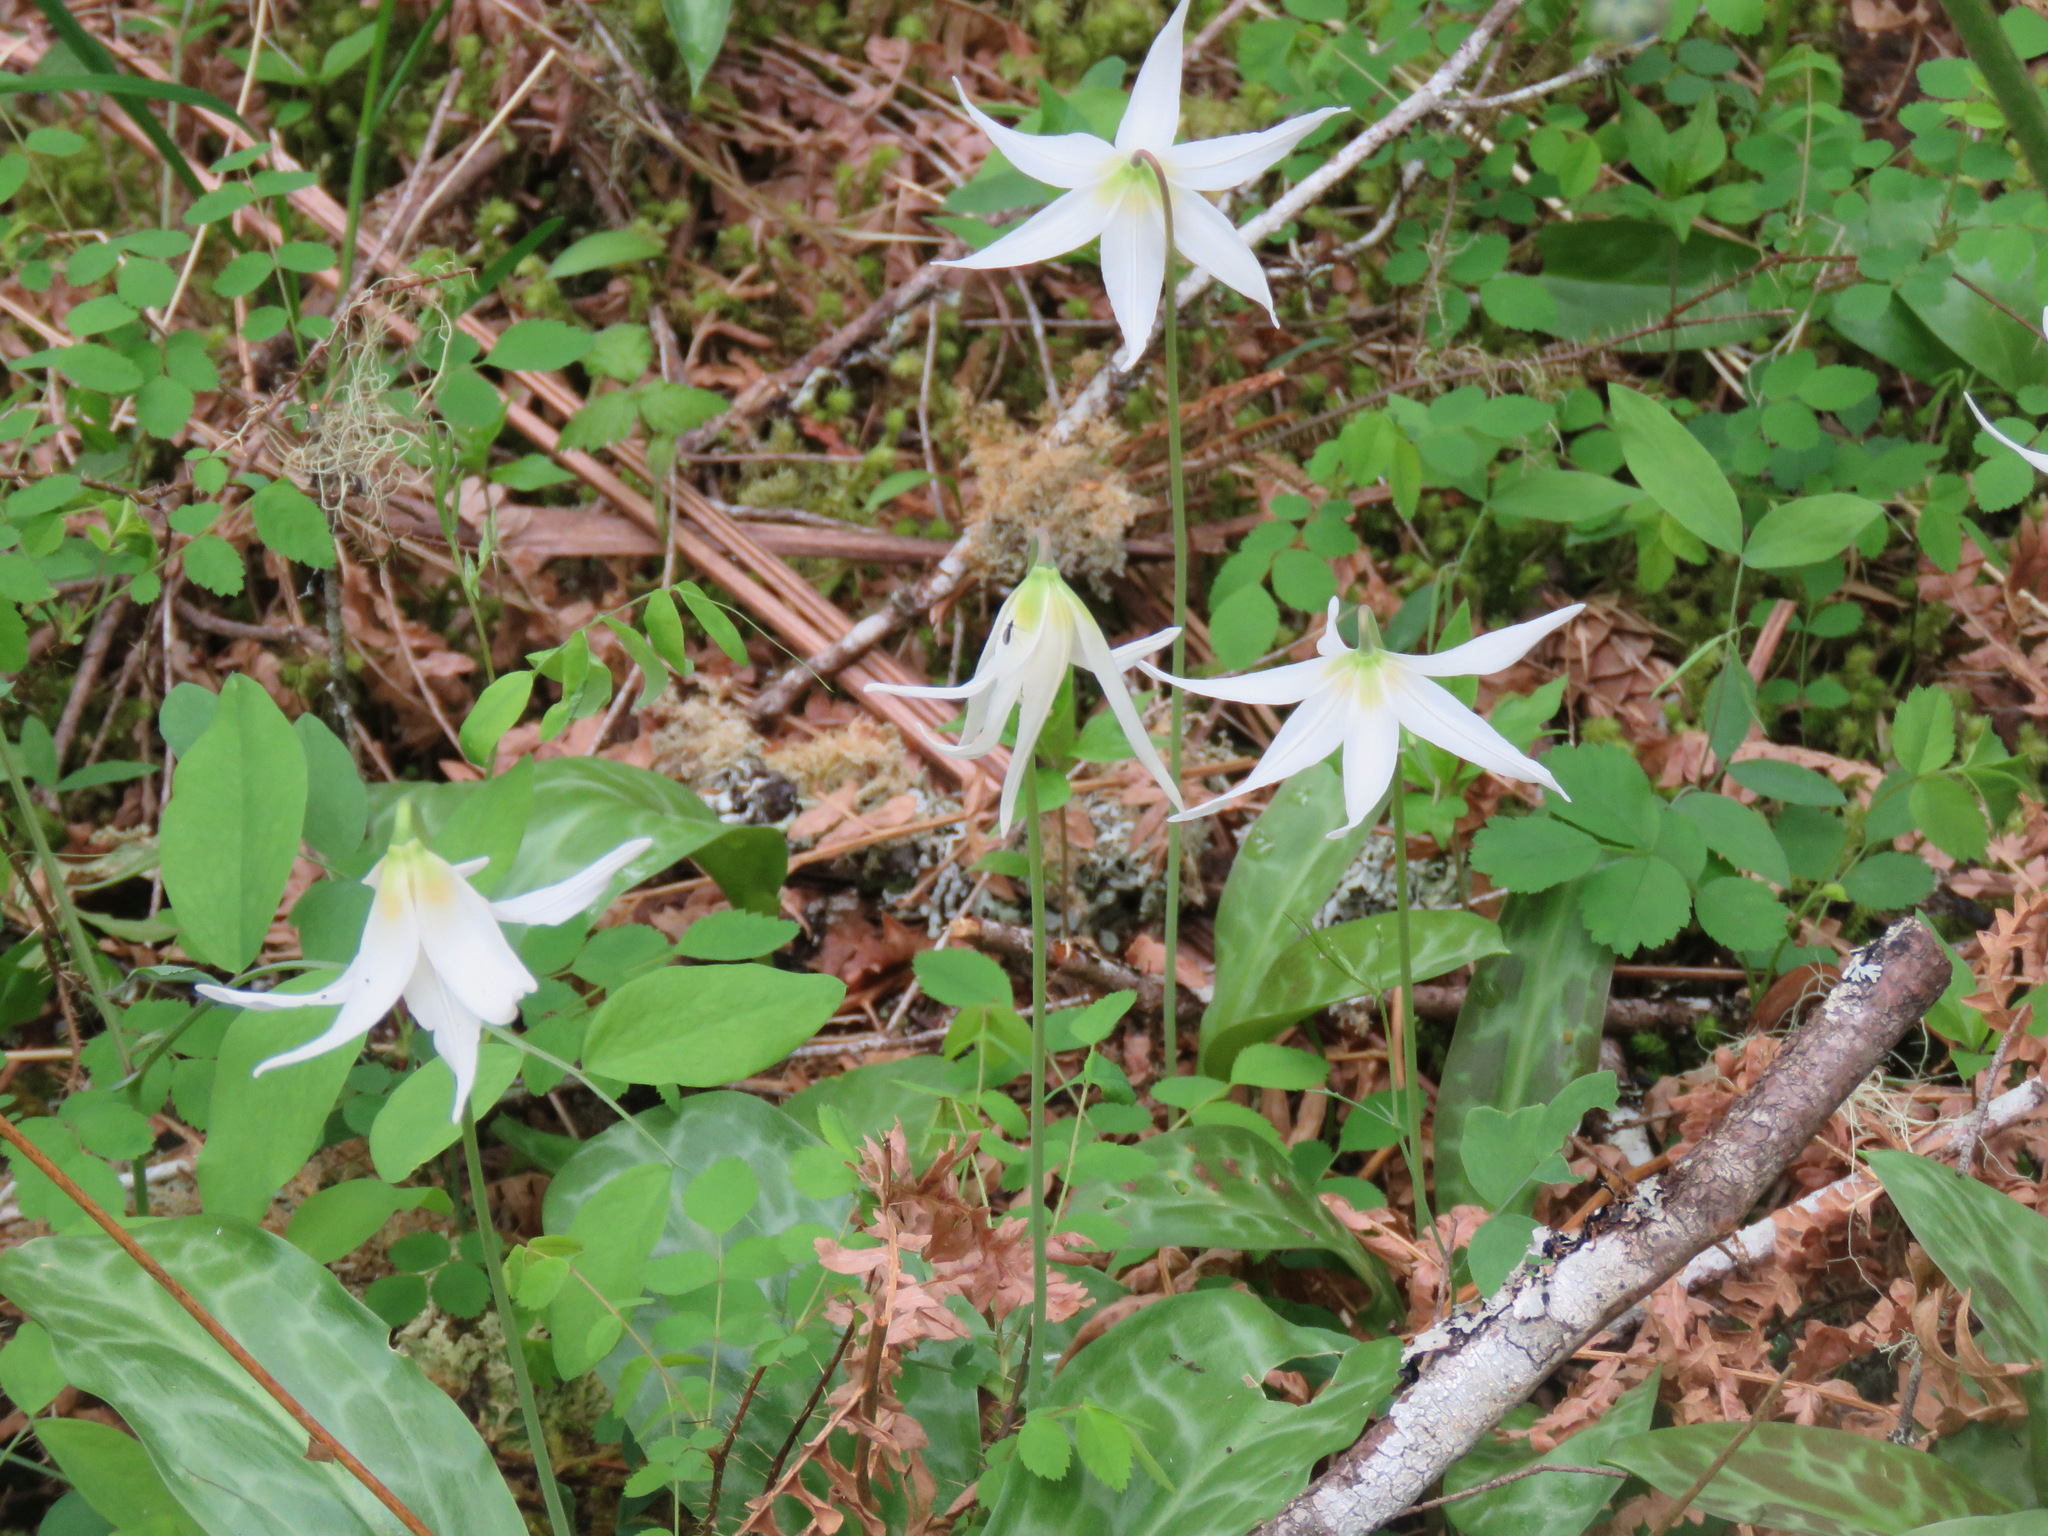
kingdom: Plantae
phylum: Tracheophyta
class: Liliopsida
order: Liliales
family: Liliaceae
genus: Erythronium
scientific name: Erythronium oregonum
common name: Giant adder's-tongue
